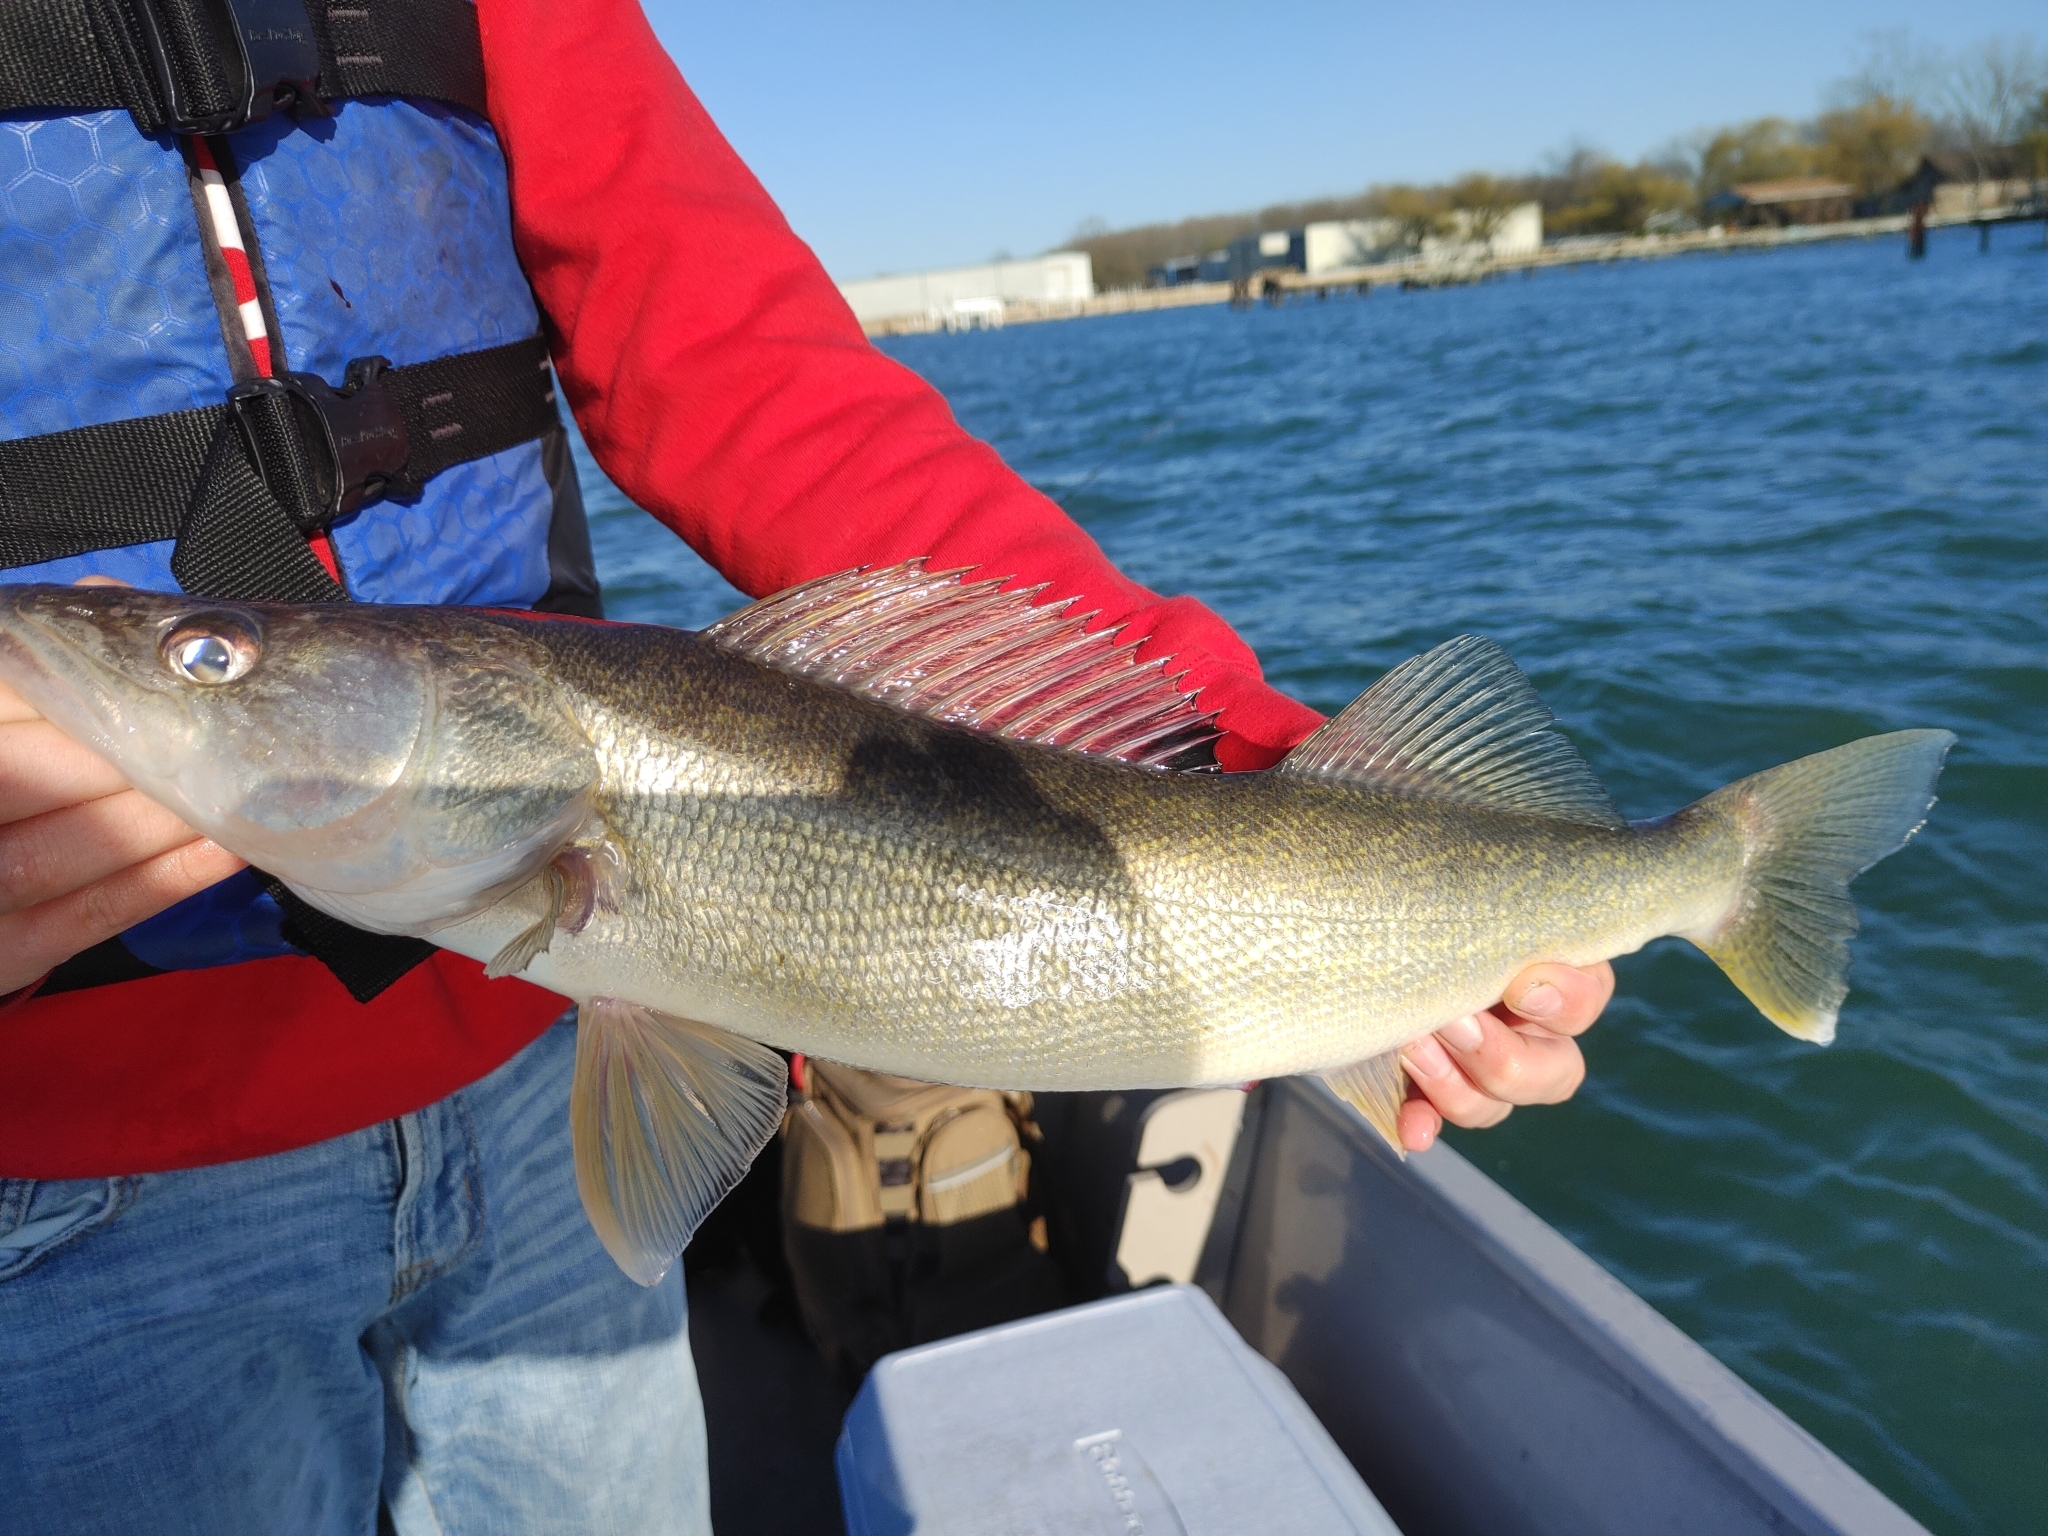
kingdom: Animalia
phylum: Chordata
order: Perciformes
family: Percidae
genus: Sander
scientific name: Sander vitreus
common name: Walleye
